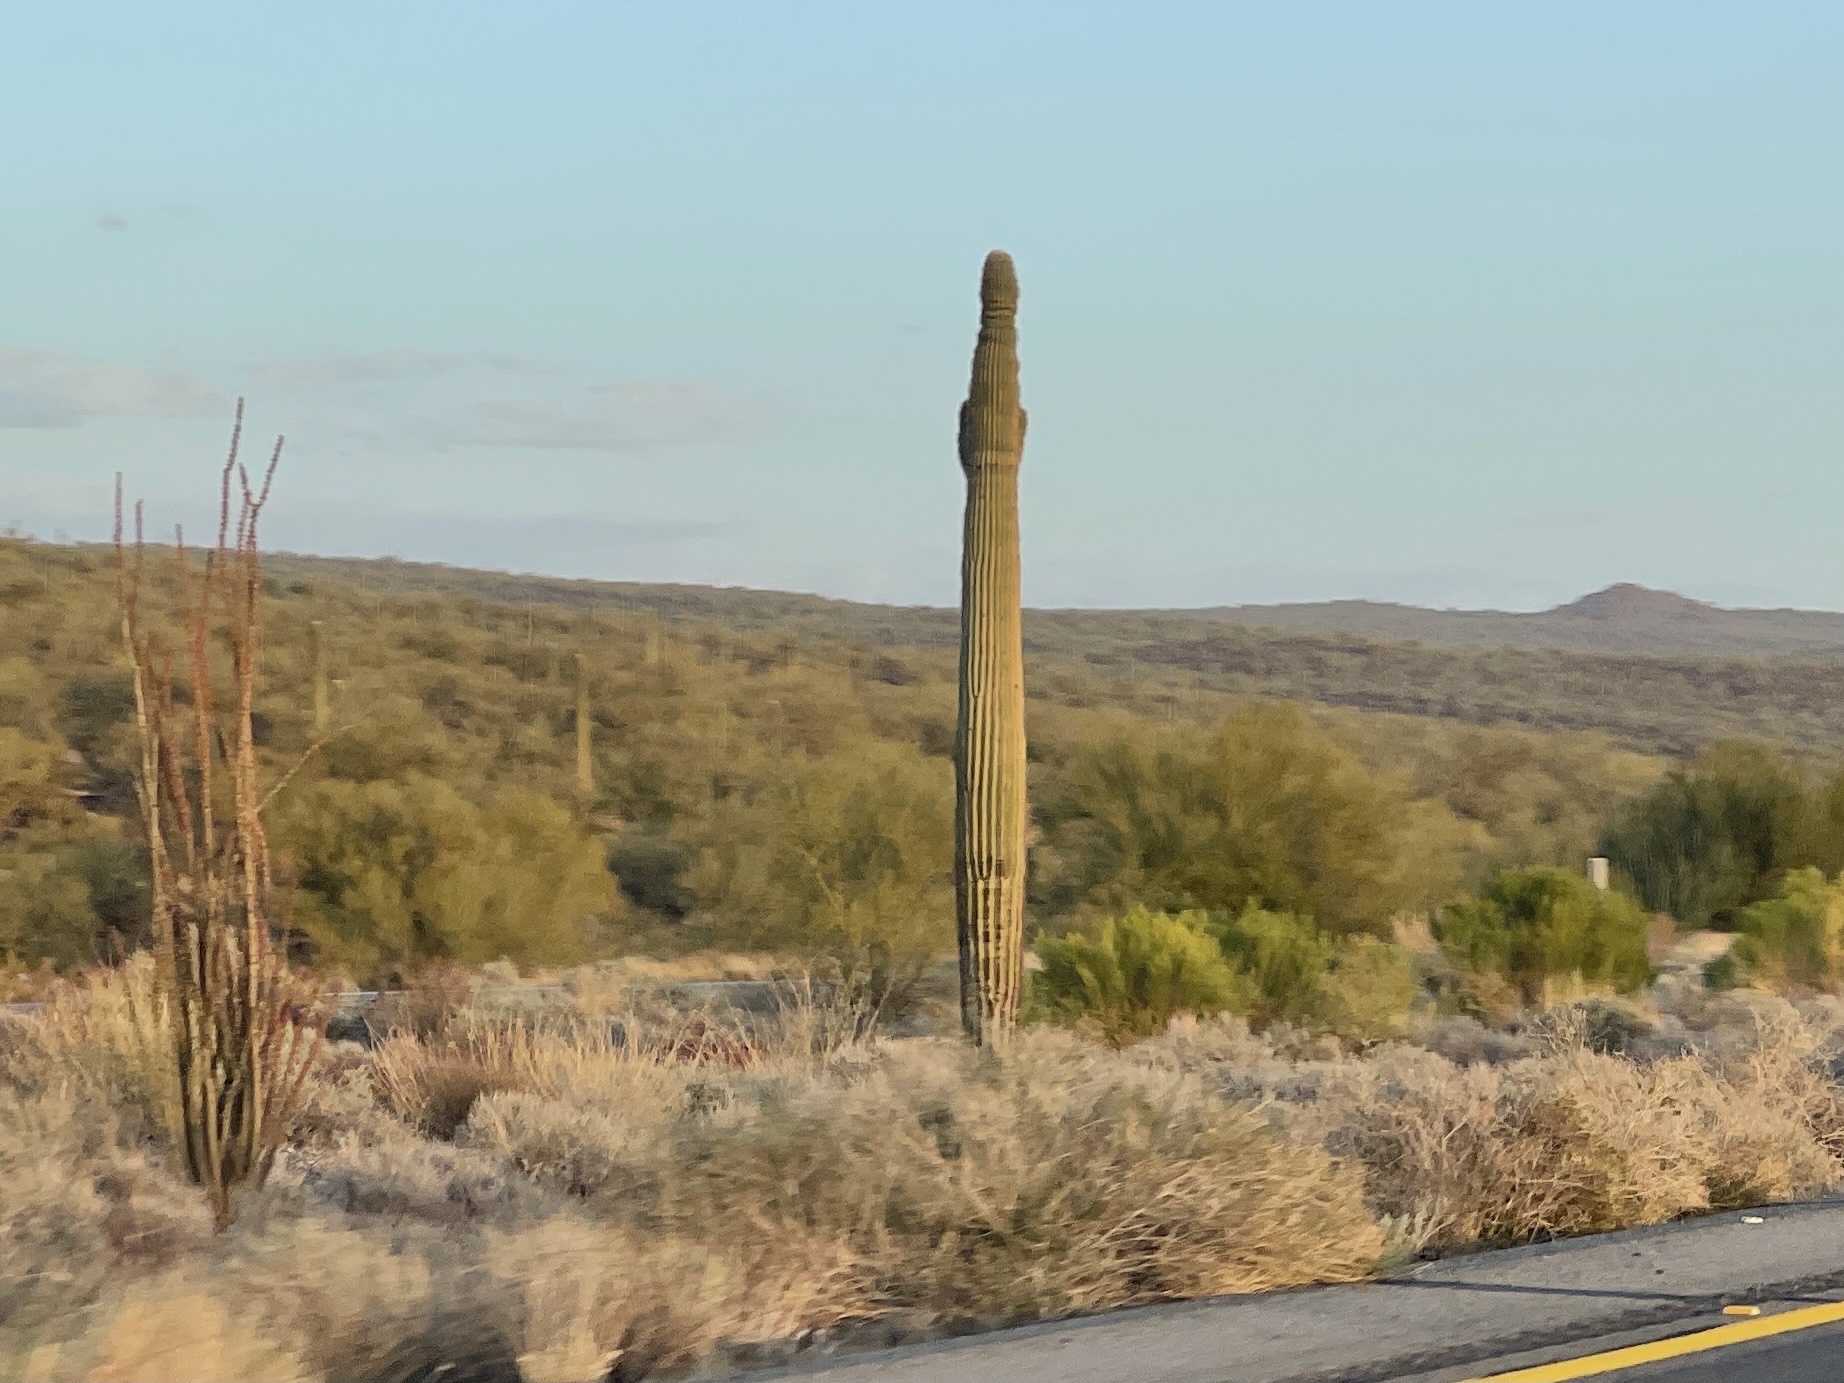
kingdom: Plantae
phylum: Tracheophyta
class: Magnoliopsida
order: Caryophyllales
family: Cactaceae
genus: Carnegiea
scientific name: Carnegiea gigantea
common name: Saguaro
